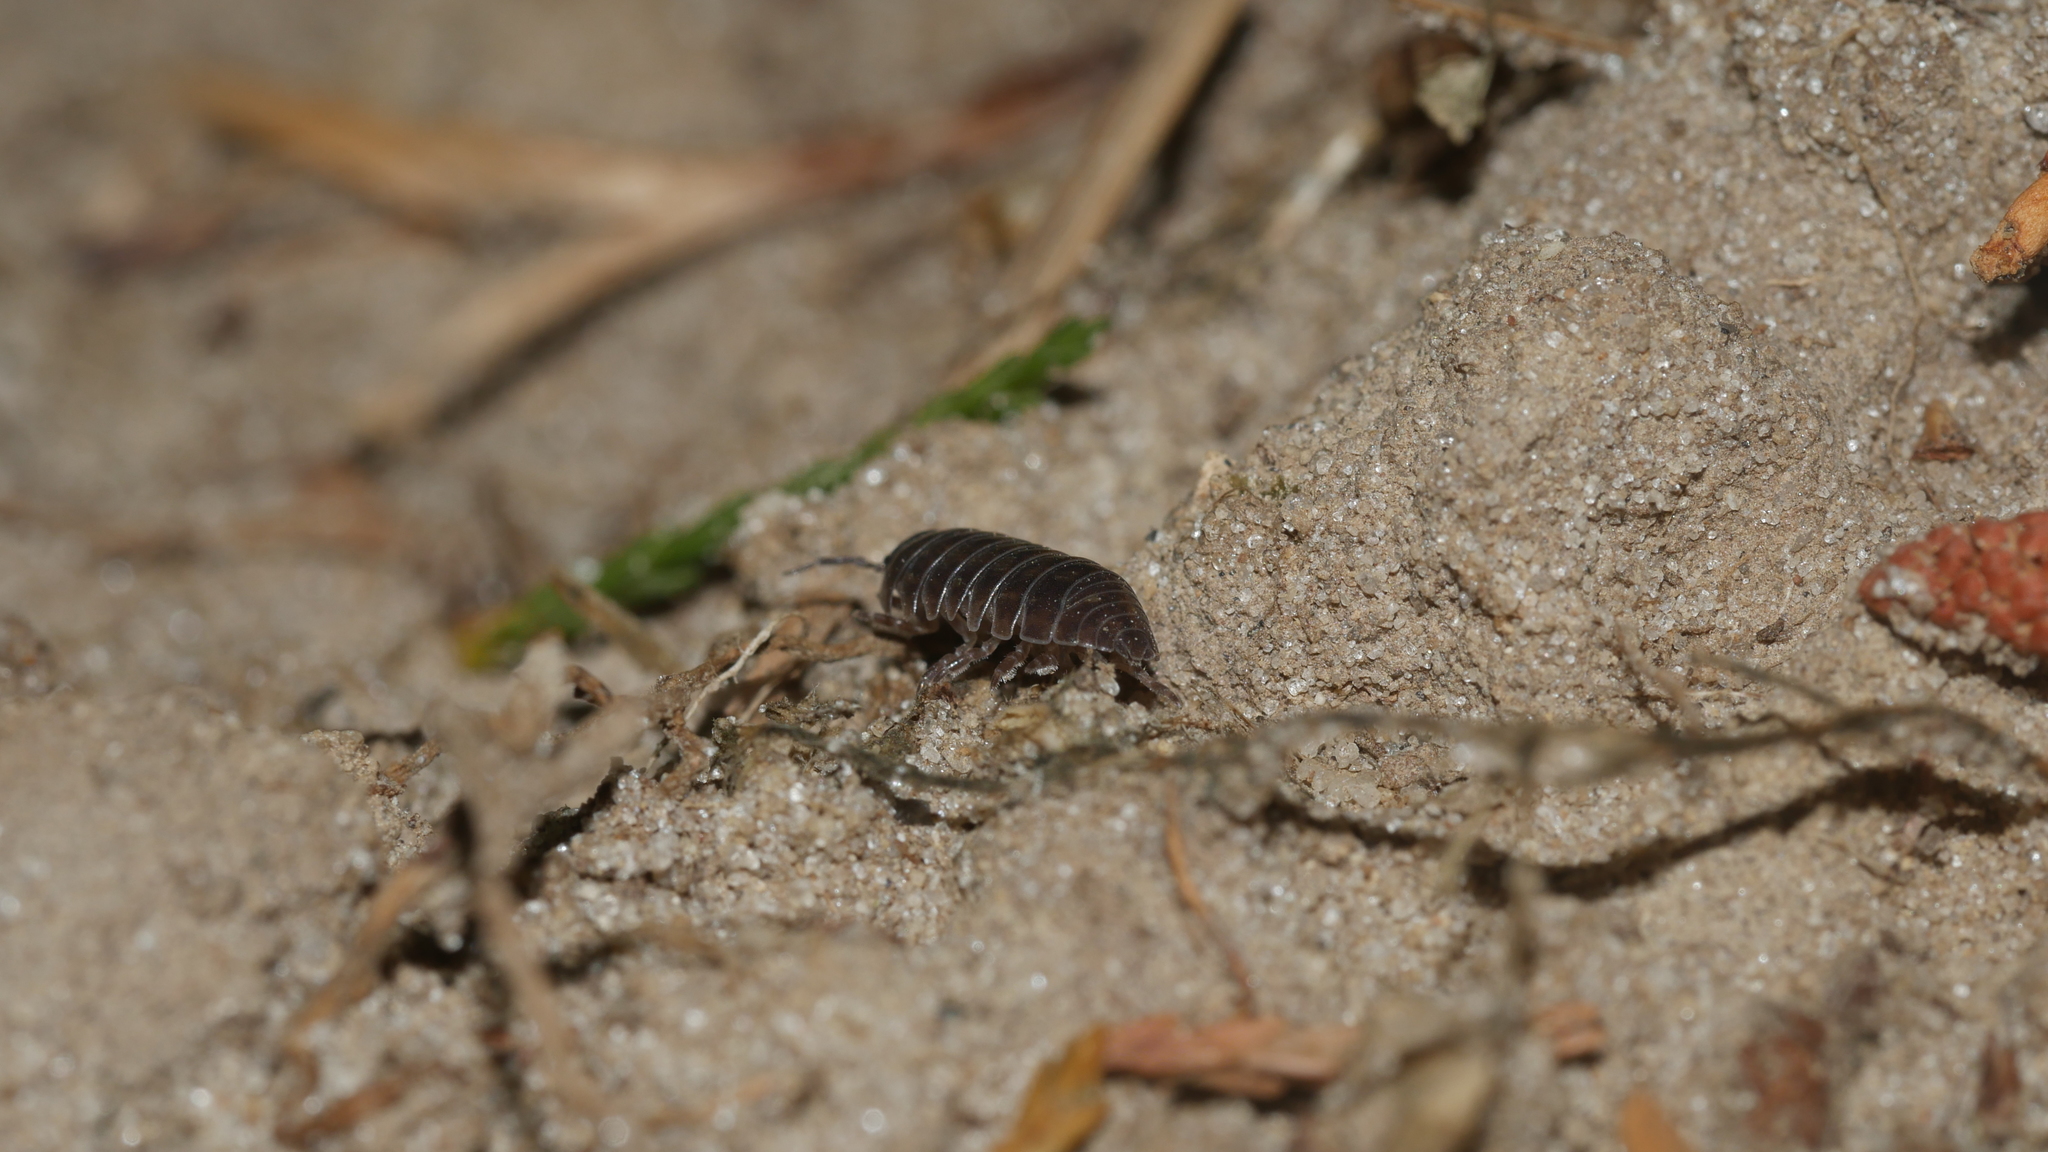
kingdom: Animalia
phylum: Arthropoda
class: Malacostraca
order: Isopoda
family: Armadillidiidae
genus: Armadillidium
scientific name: Armadillidium vulgare
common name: Common pill woodlouse
